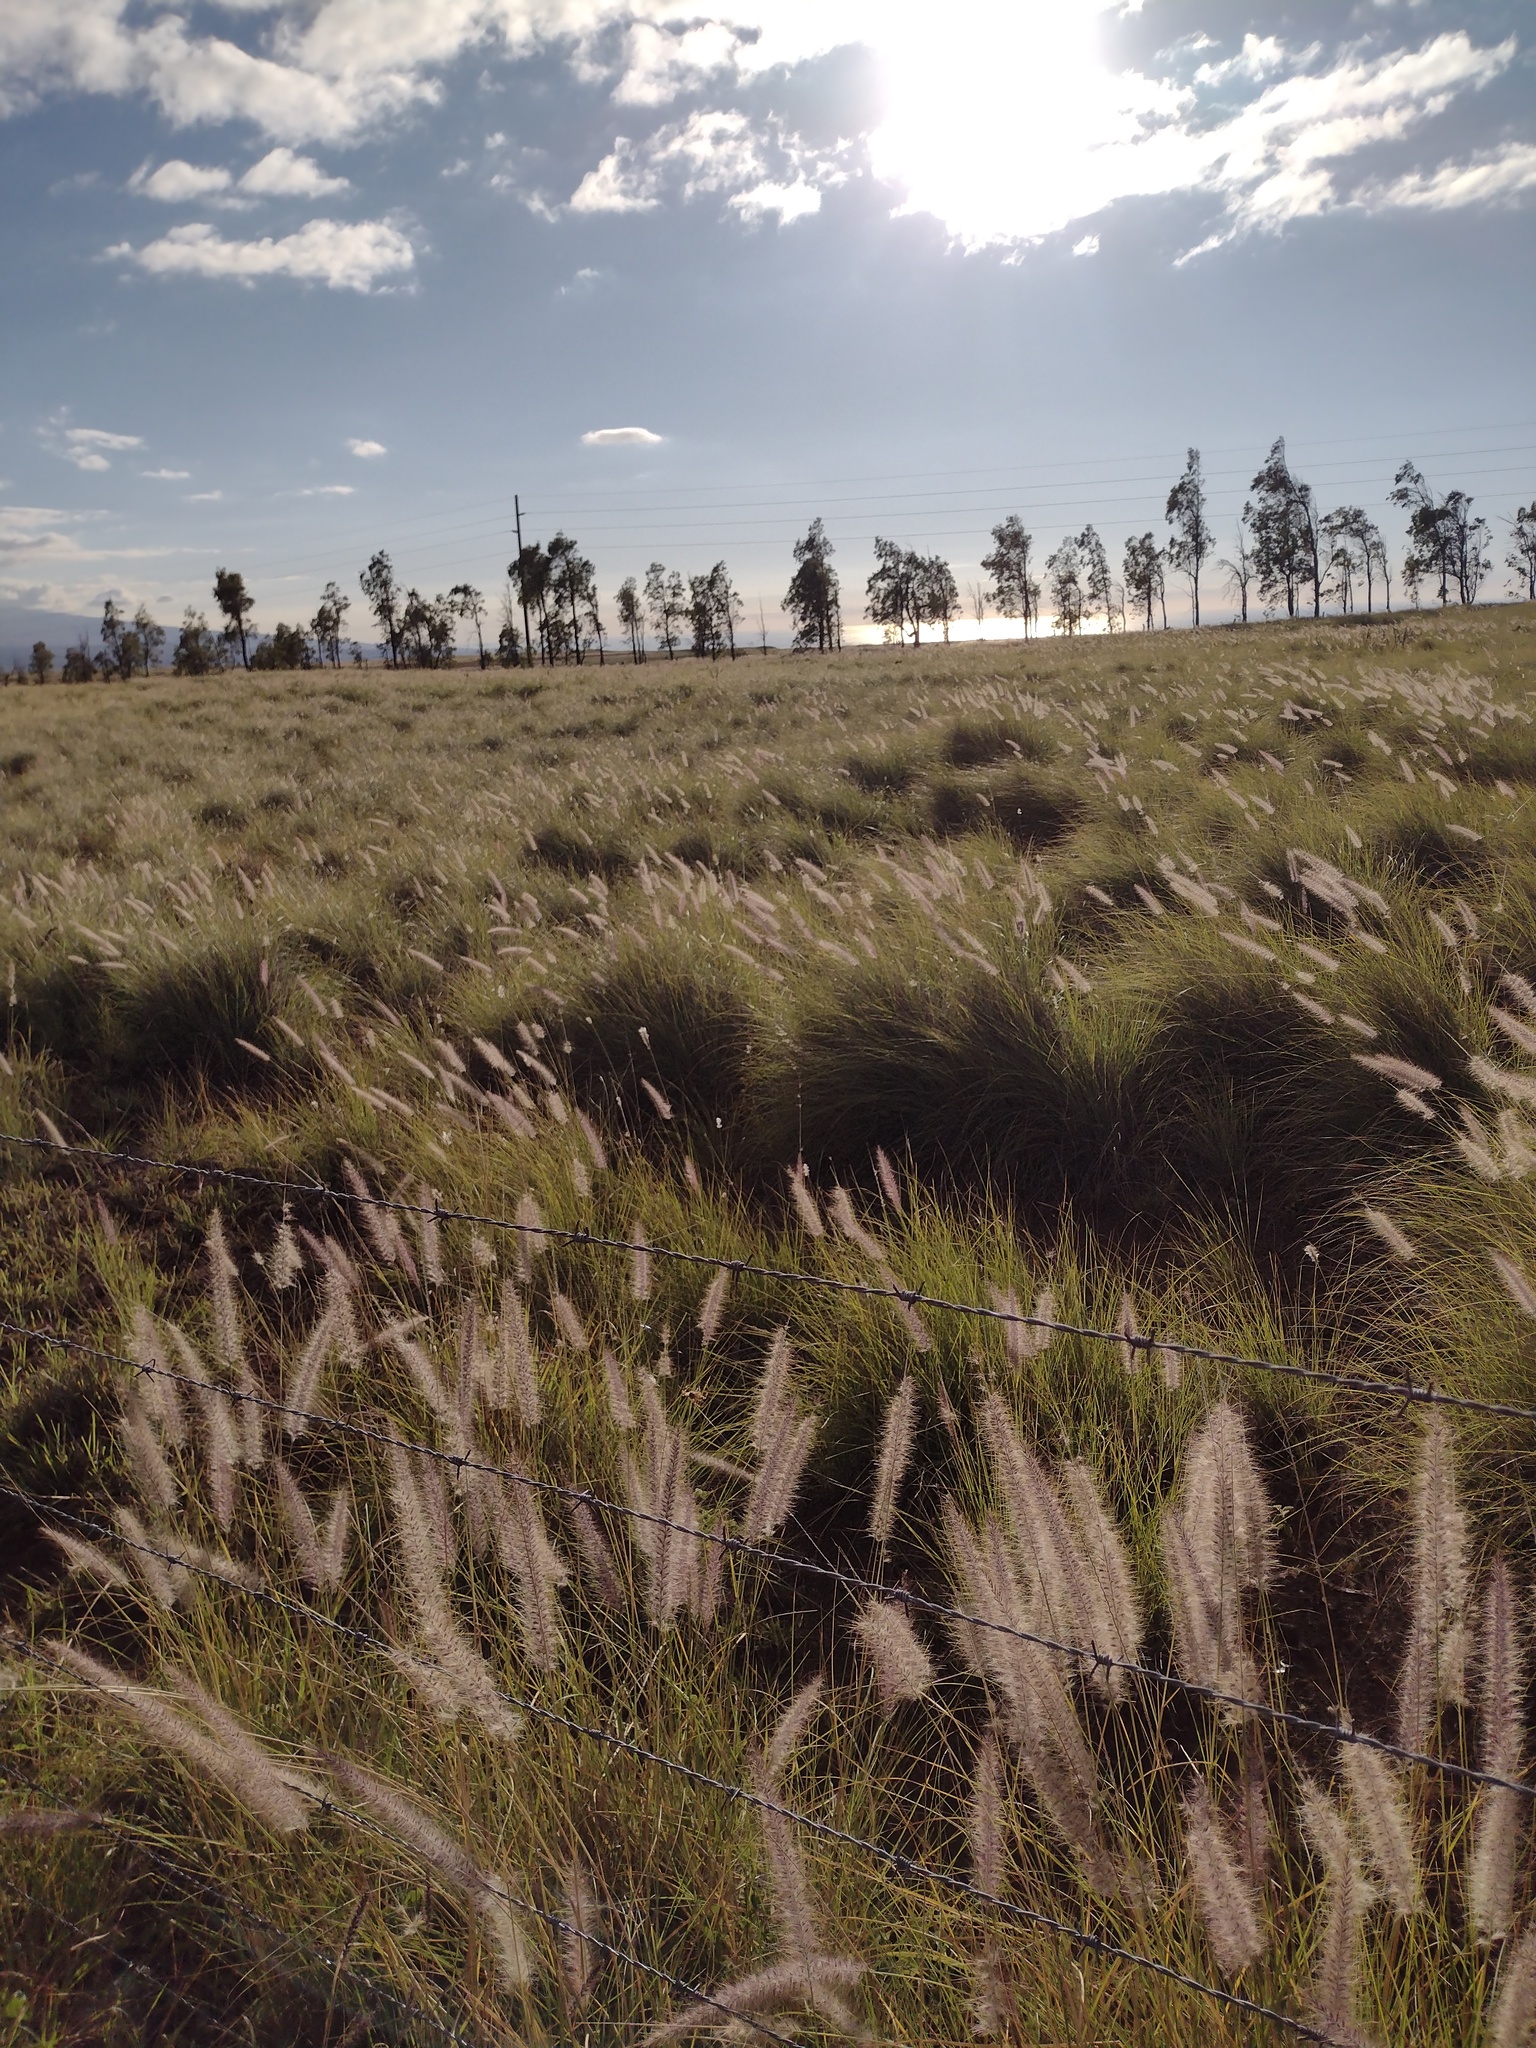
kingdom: Plantae
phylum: Tracheophyta
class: Liliopsida
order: Poales
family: Poaceae
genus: Cenchrus
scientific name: Cenchrus setaceus
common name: Crimson fountaingrass
